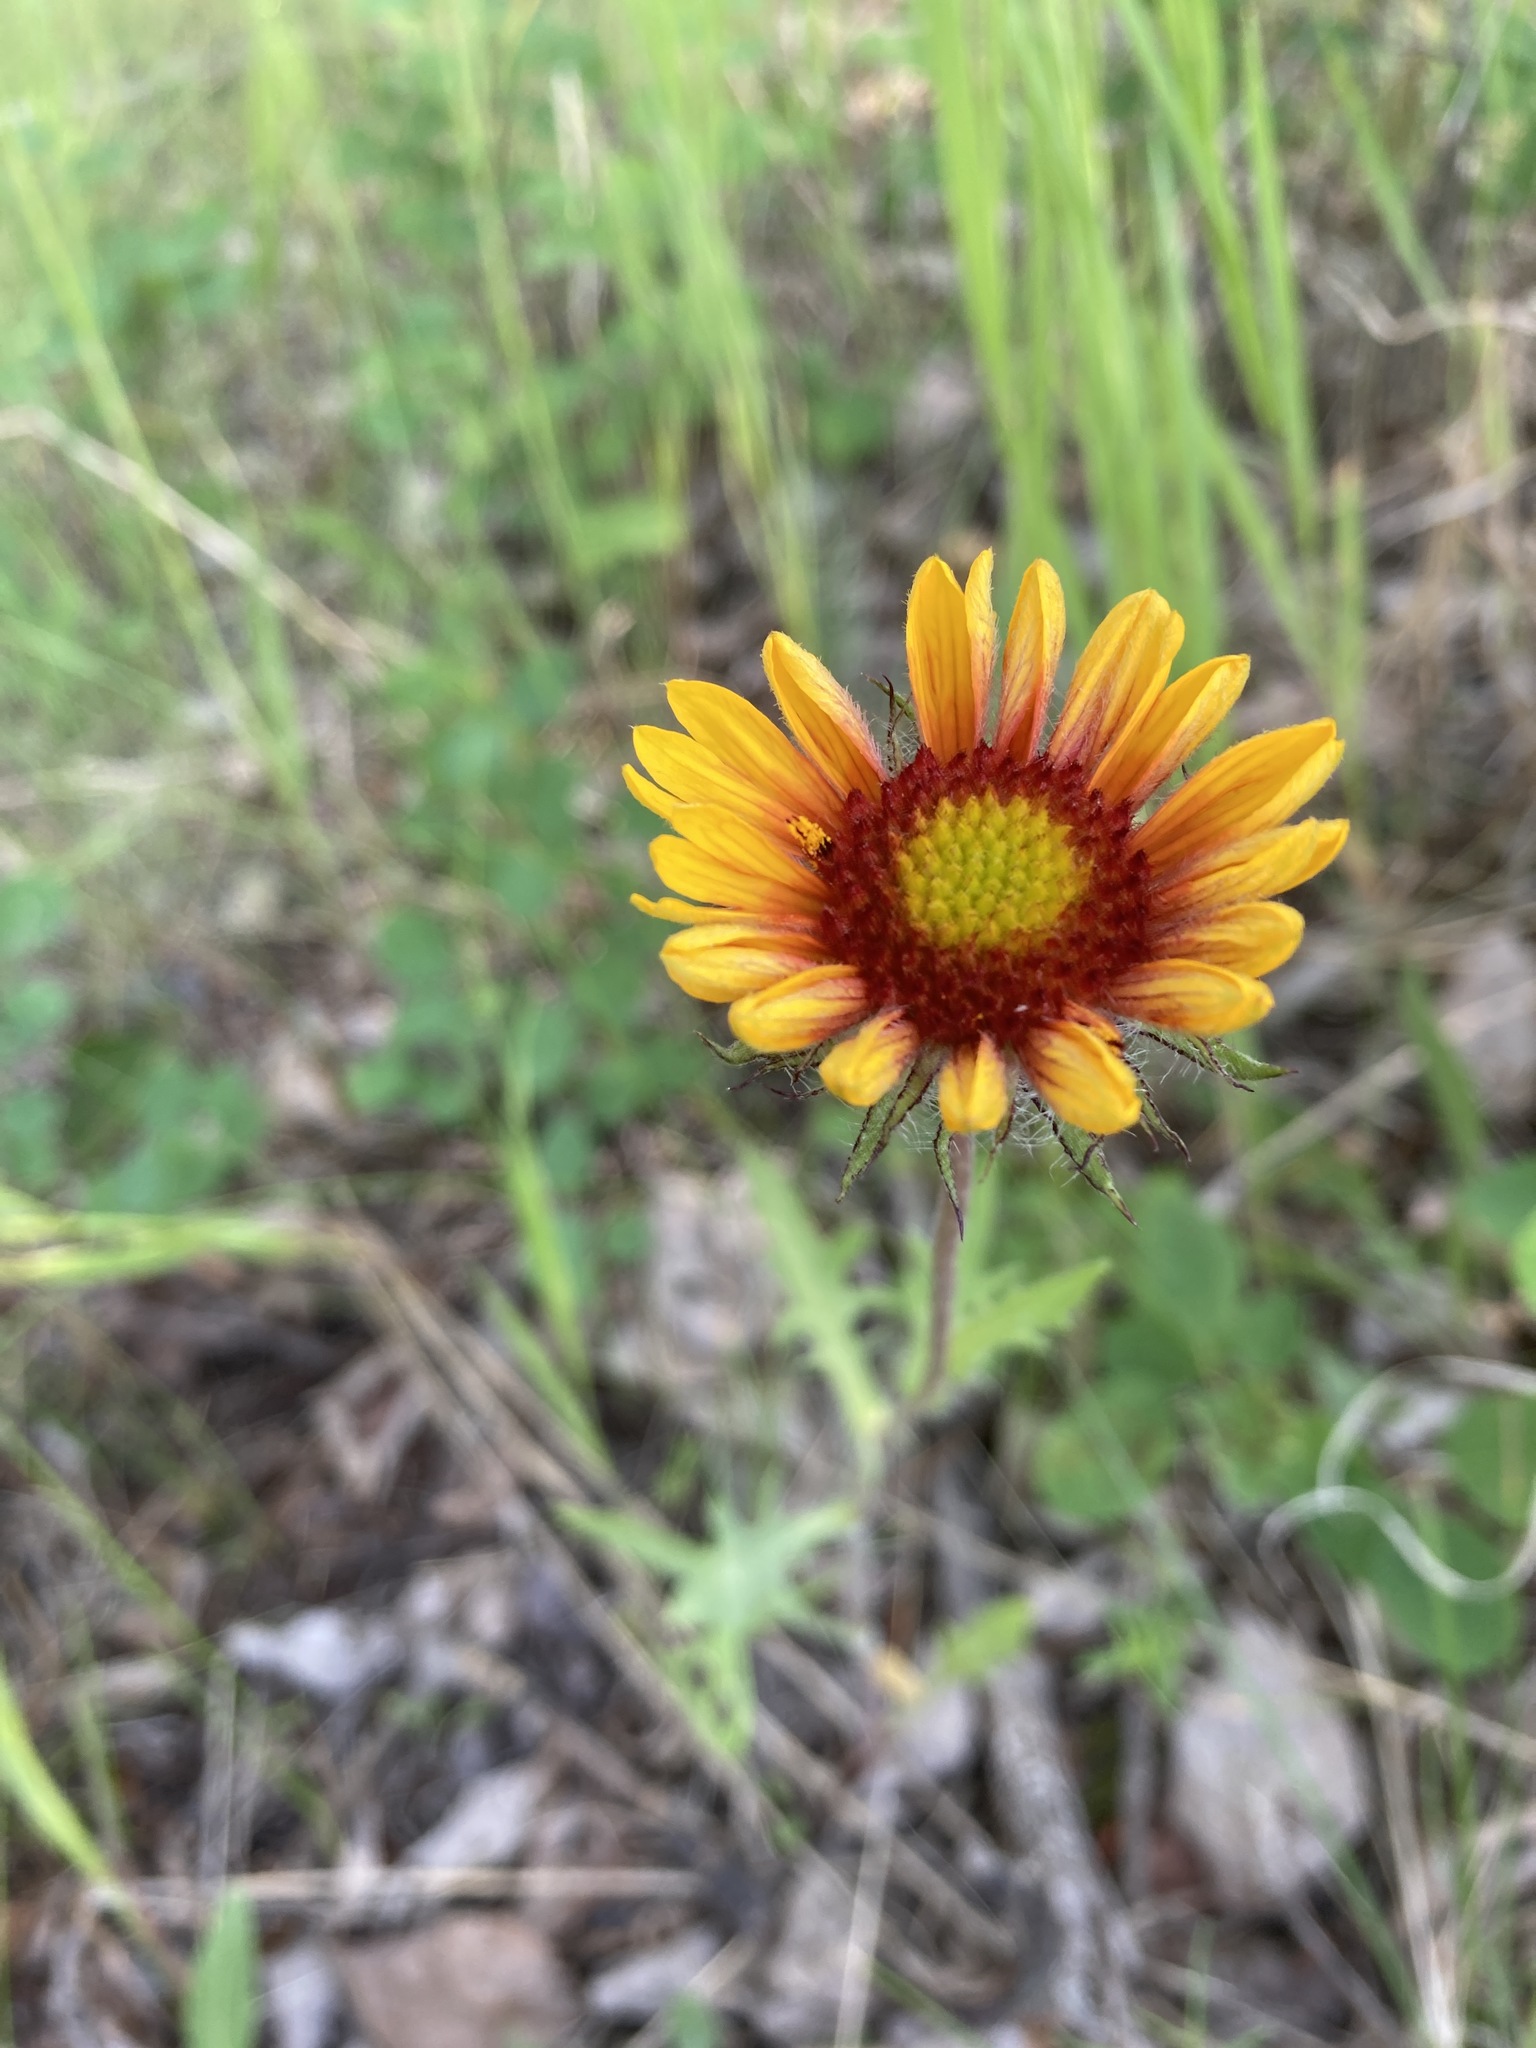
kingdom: Plantae
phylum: Tracheophyta
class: Magnoliopsida
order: Asterales
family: Asteraceae
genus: Gaillardia
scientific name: Gaillardia aristata
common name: Blanket-flower
